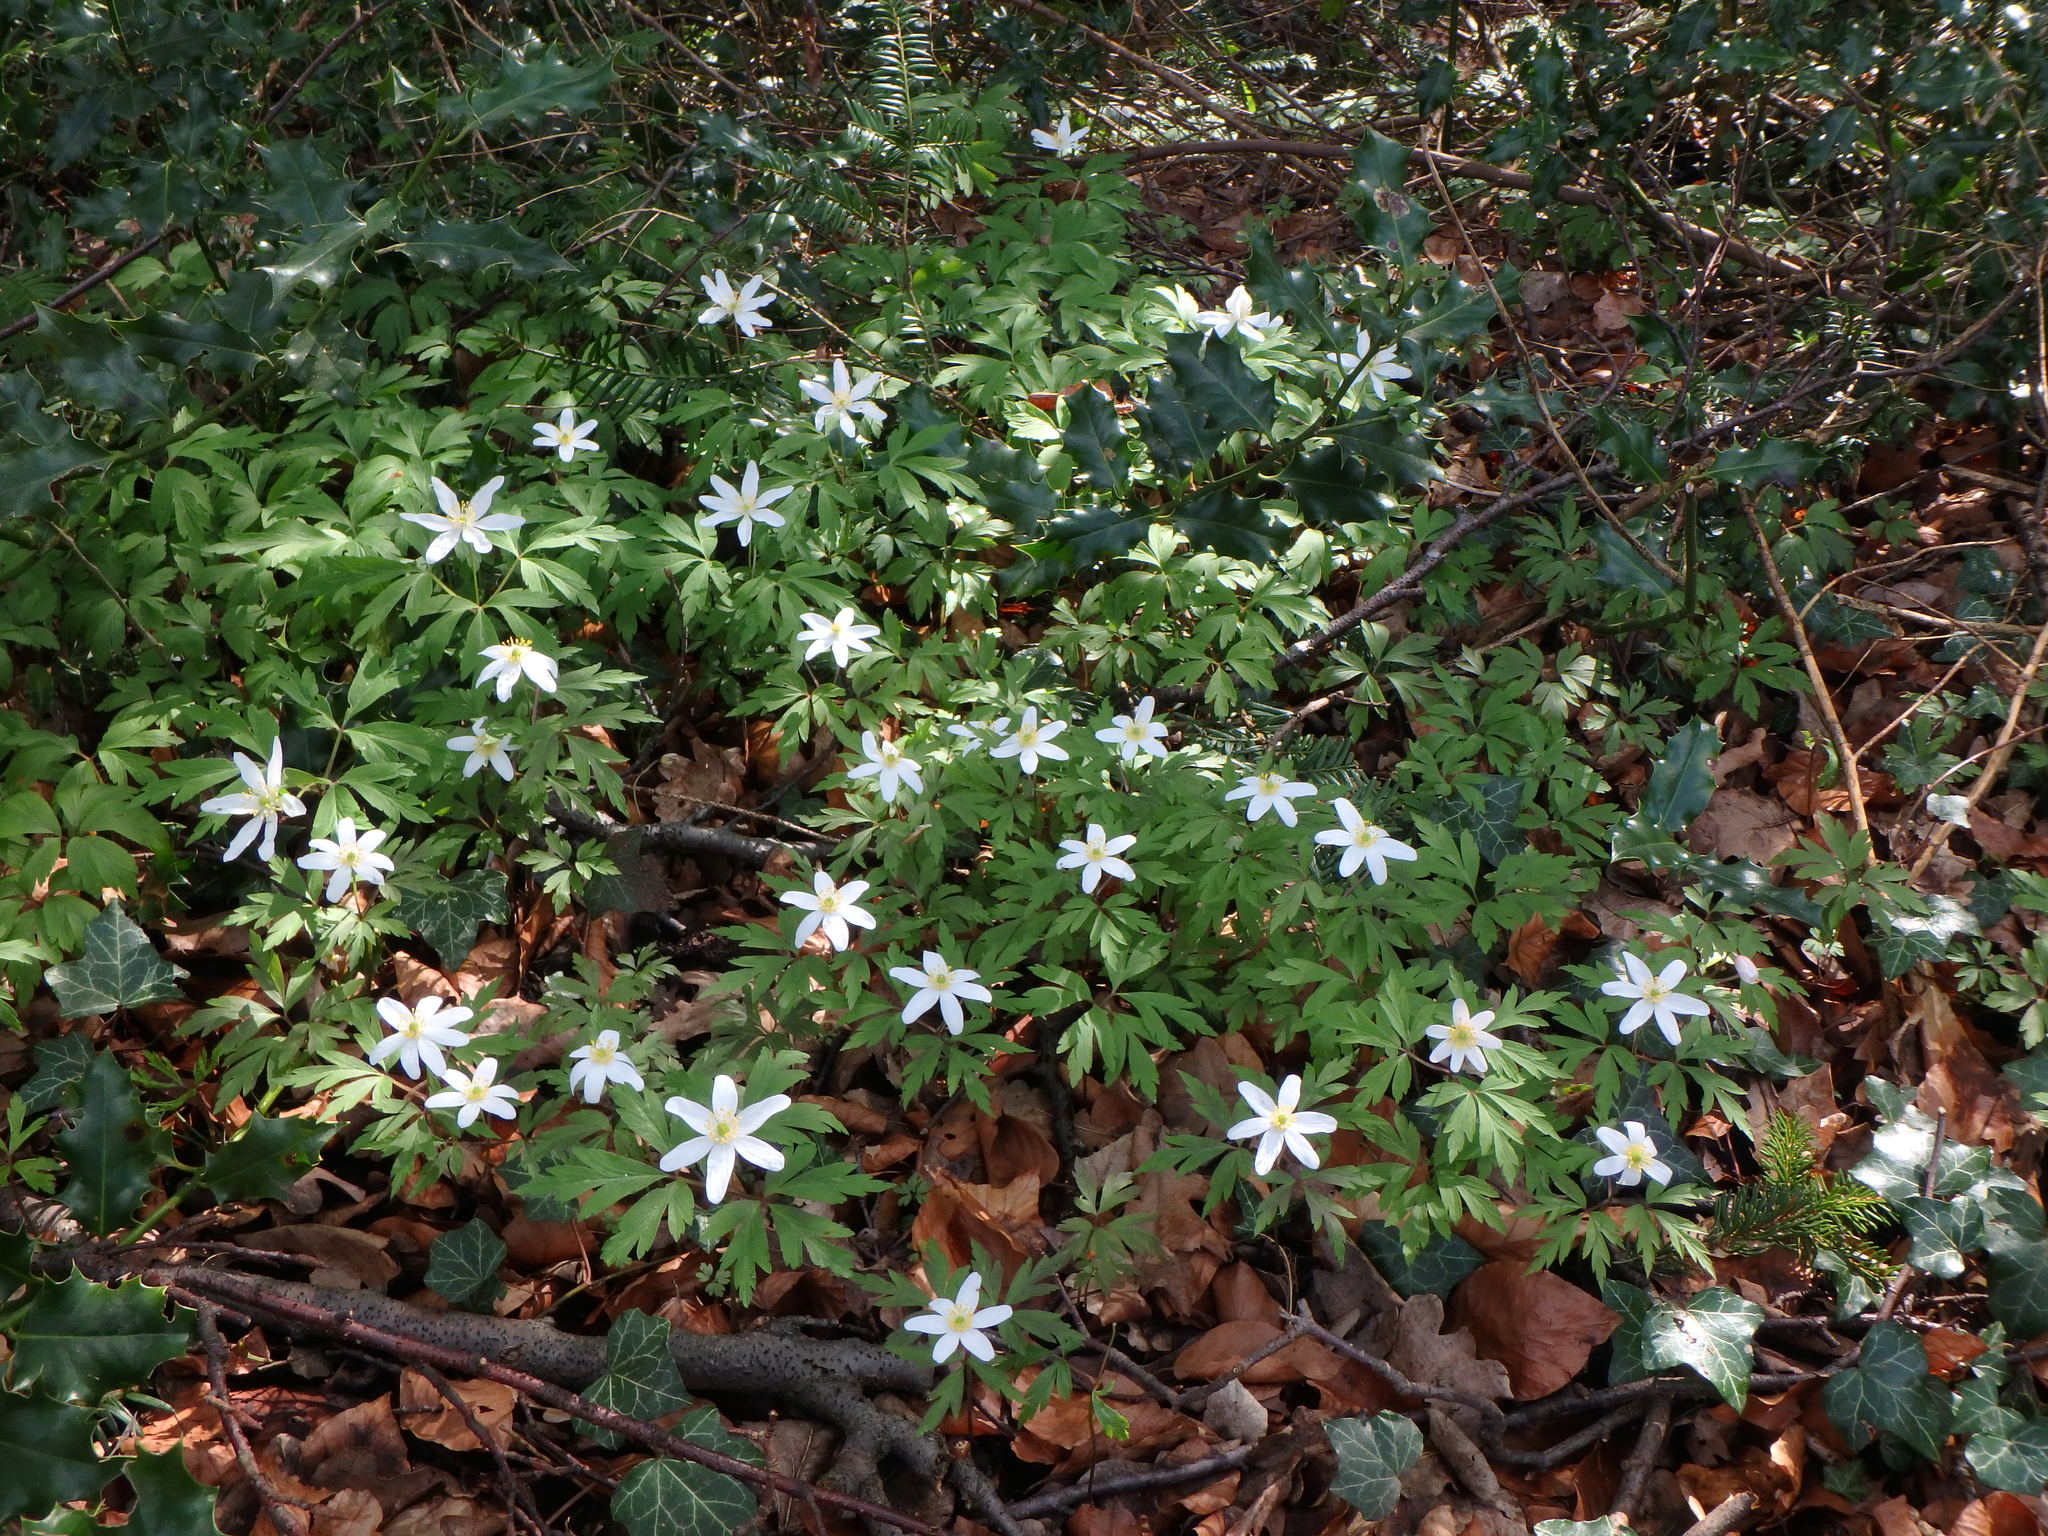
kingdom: Plantae
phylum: Tracheophyta
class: Magnoliopsida
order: Ranunculales
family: Ranunculaceae
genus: Anemone
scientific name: Anemone nemorosa
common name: Wood anemone
